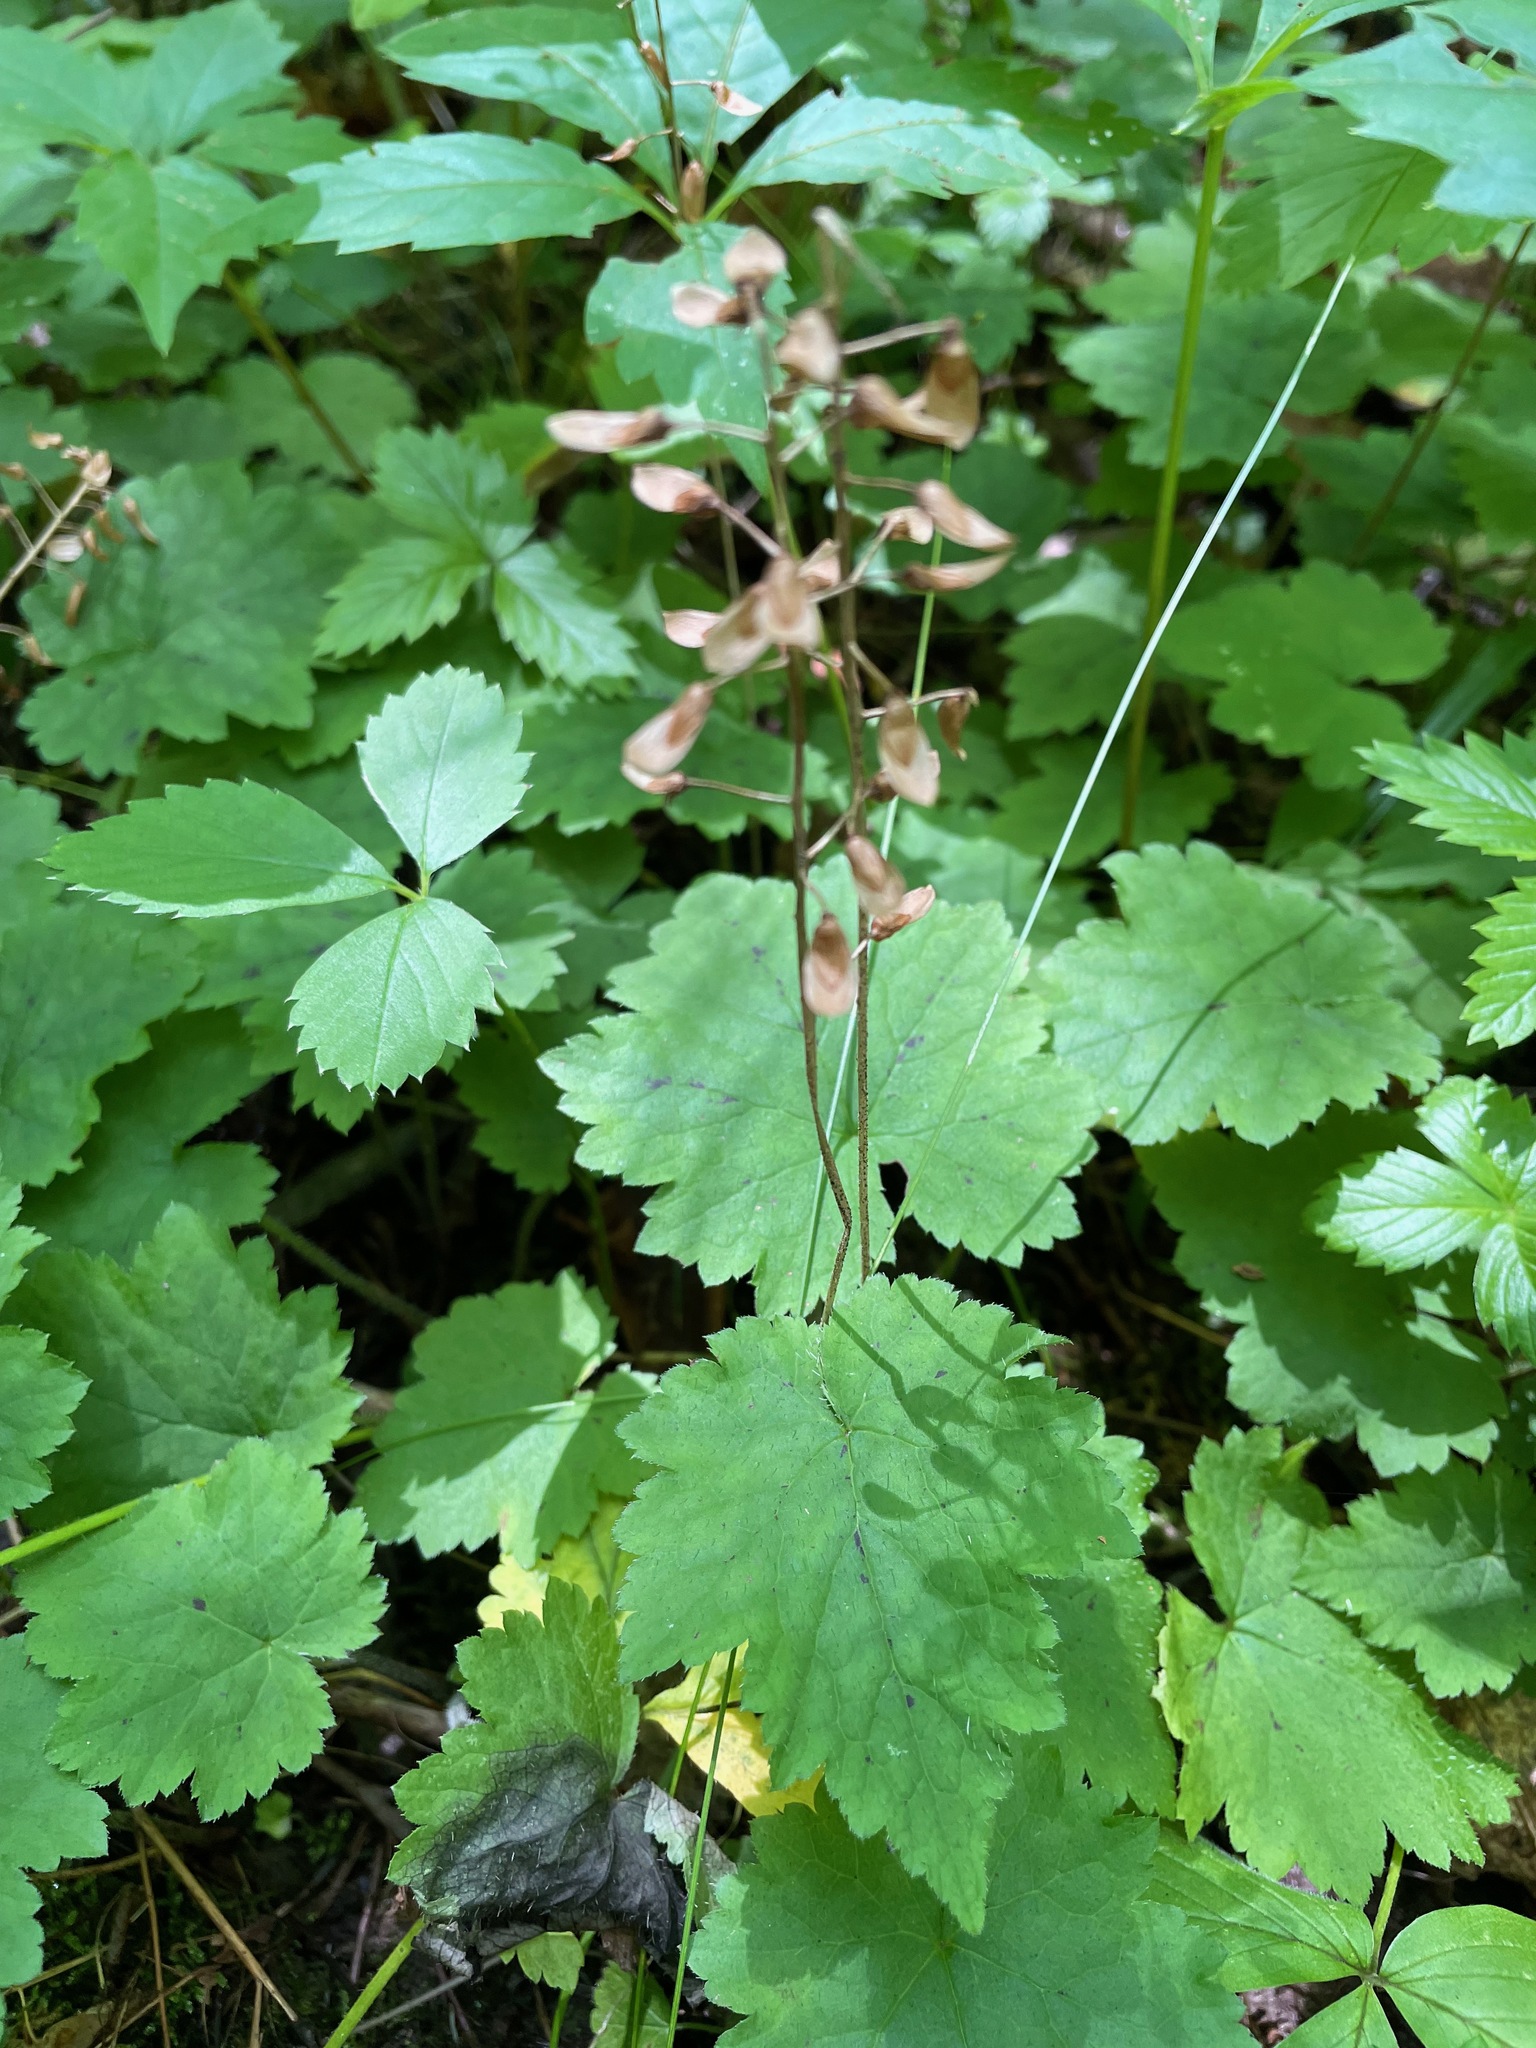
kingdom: Plantae
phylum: Tracheophyta
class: Magnoliopsida
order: Saxifragales
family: Saxifragaceae
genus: Tiarella
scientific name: Tiarella stolonifera
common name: Stoloniferous foamflower
